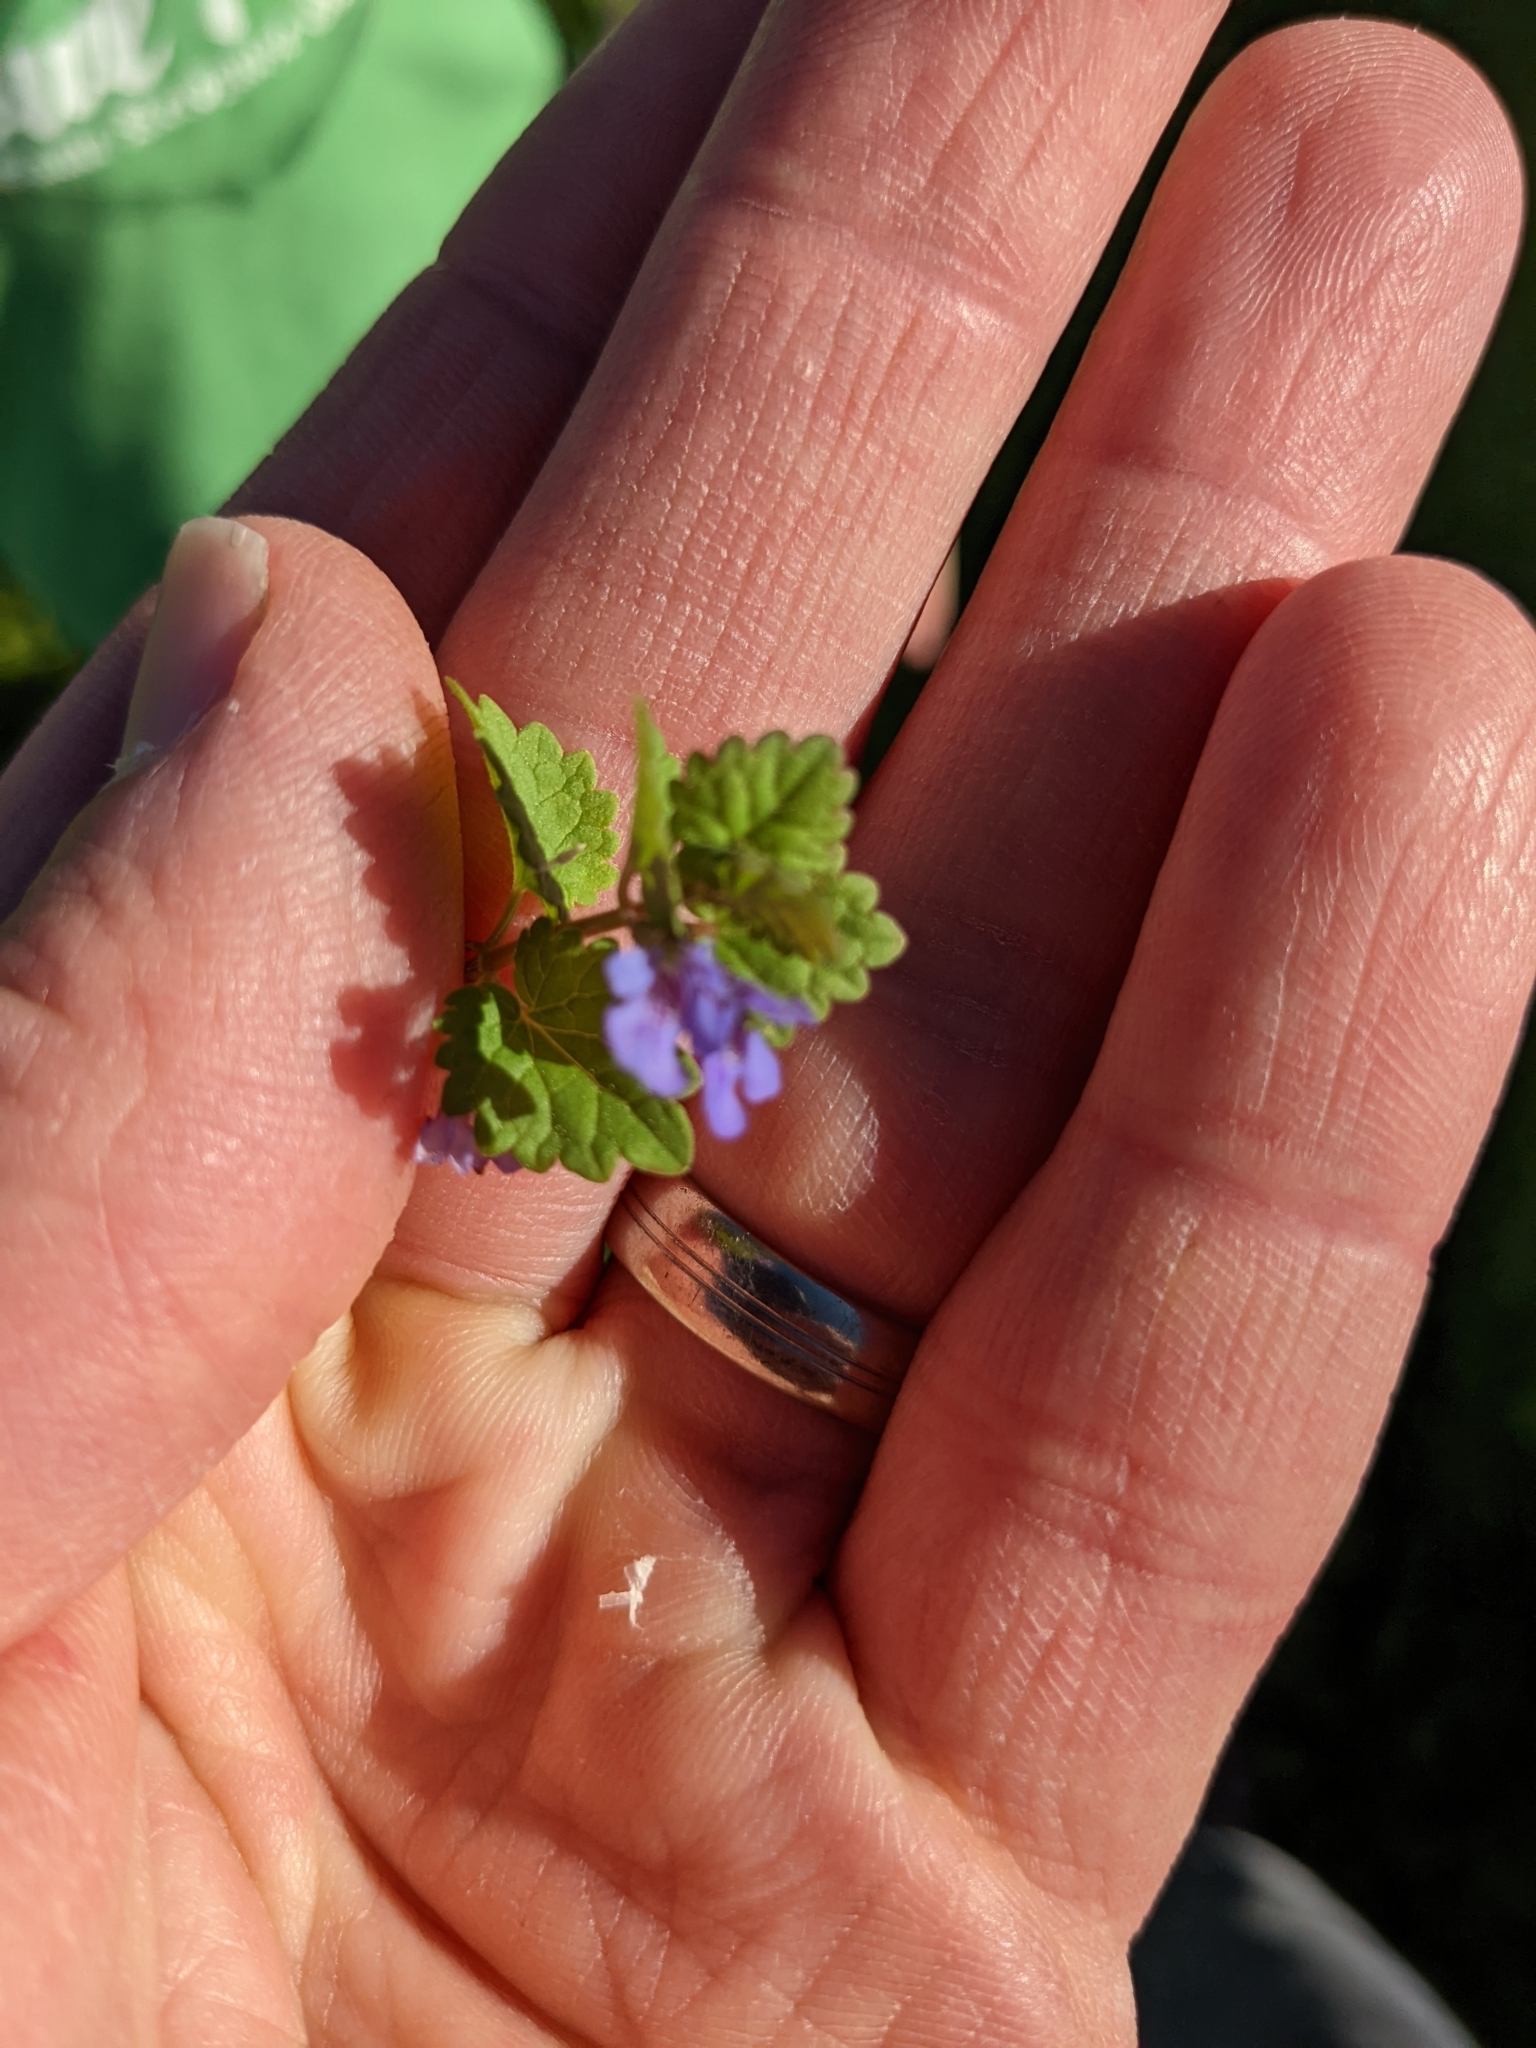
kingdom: Plantae
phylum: Tracheophyta
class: Magnoliopsida
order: Lamiales
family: Lamiaceae
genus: Glechoma
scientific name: Glechoma hederacea
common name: Ground ivy
